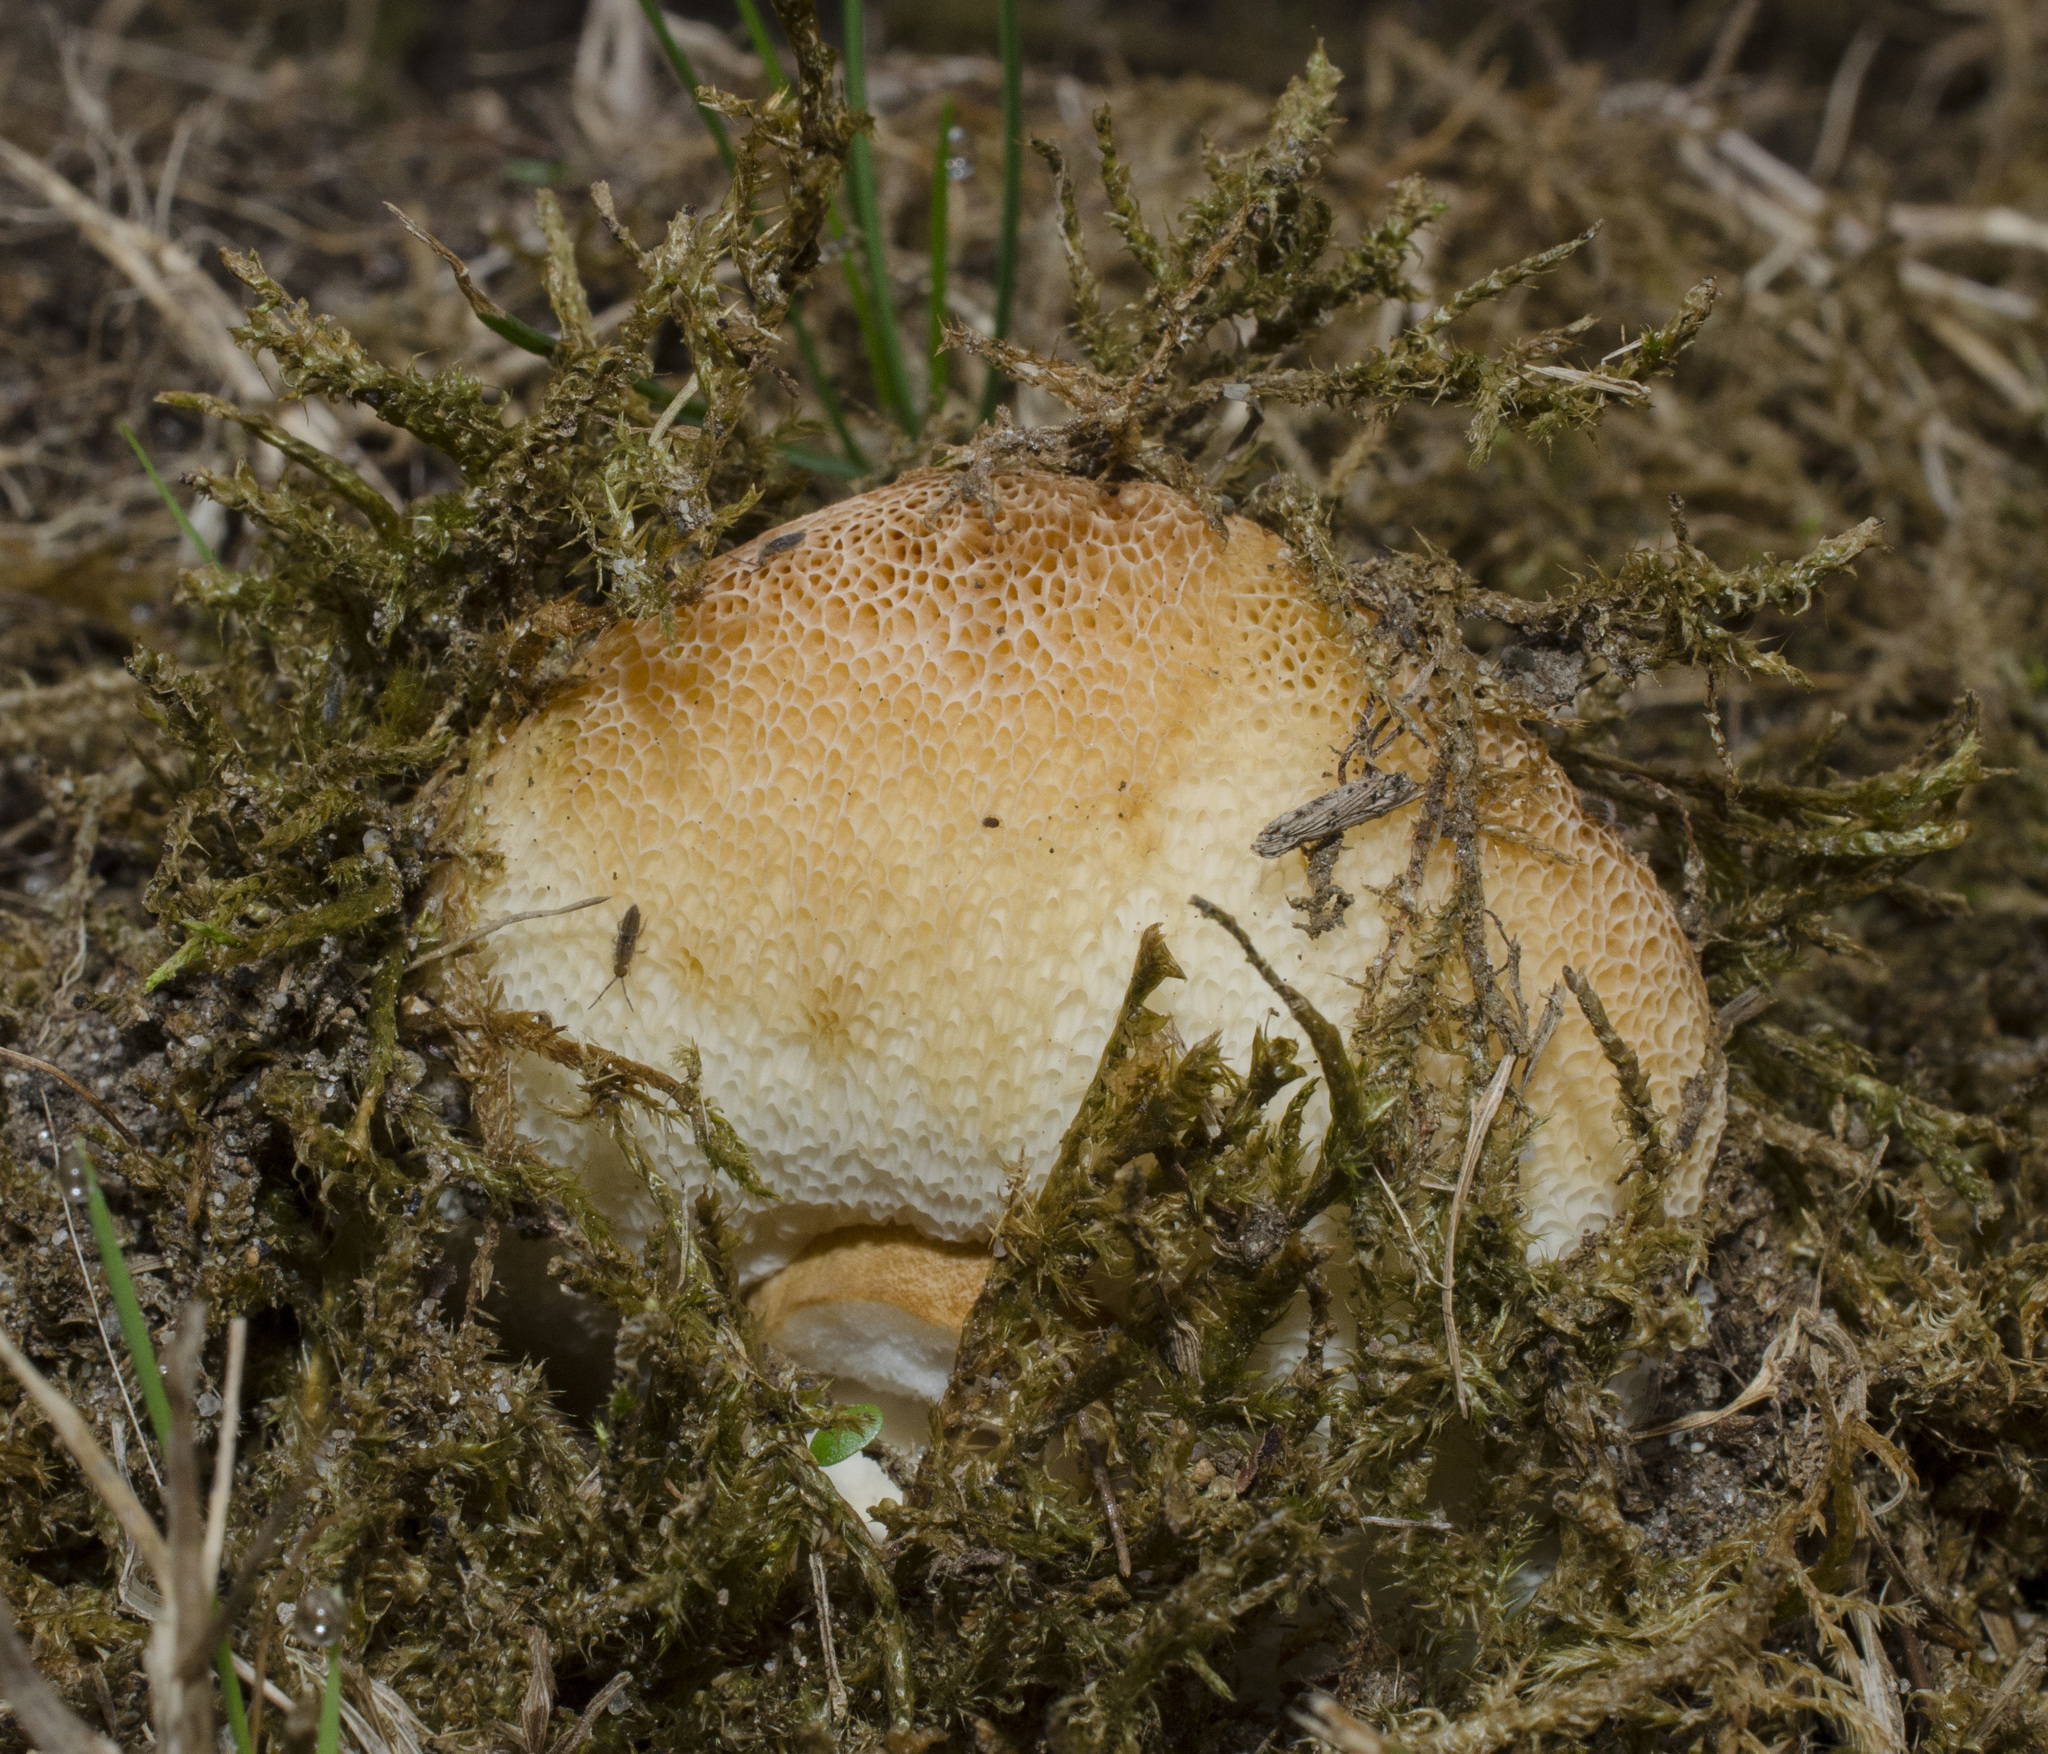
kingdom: Fungi
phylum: Basidiomycota
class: Agaricomycetes
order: Boletales
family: Gyroporaceae
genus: Gyroporus
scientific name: Gyroporus castaneus
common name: Chestnut bolete
